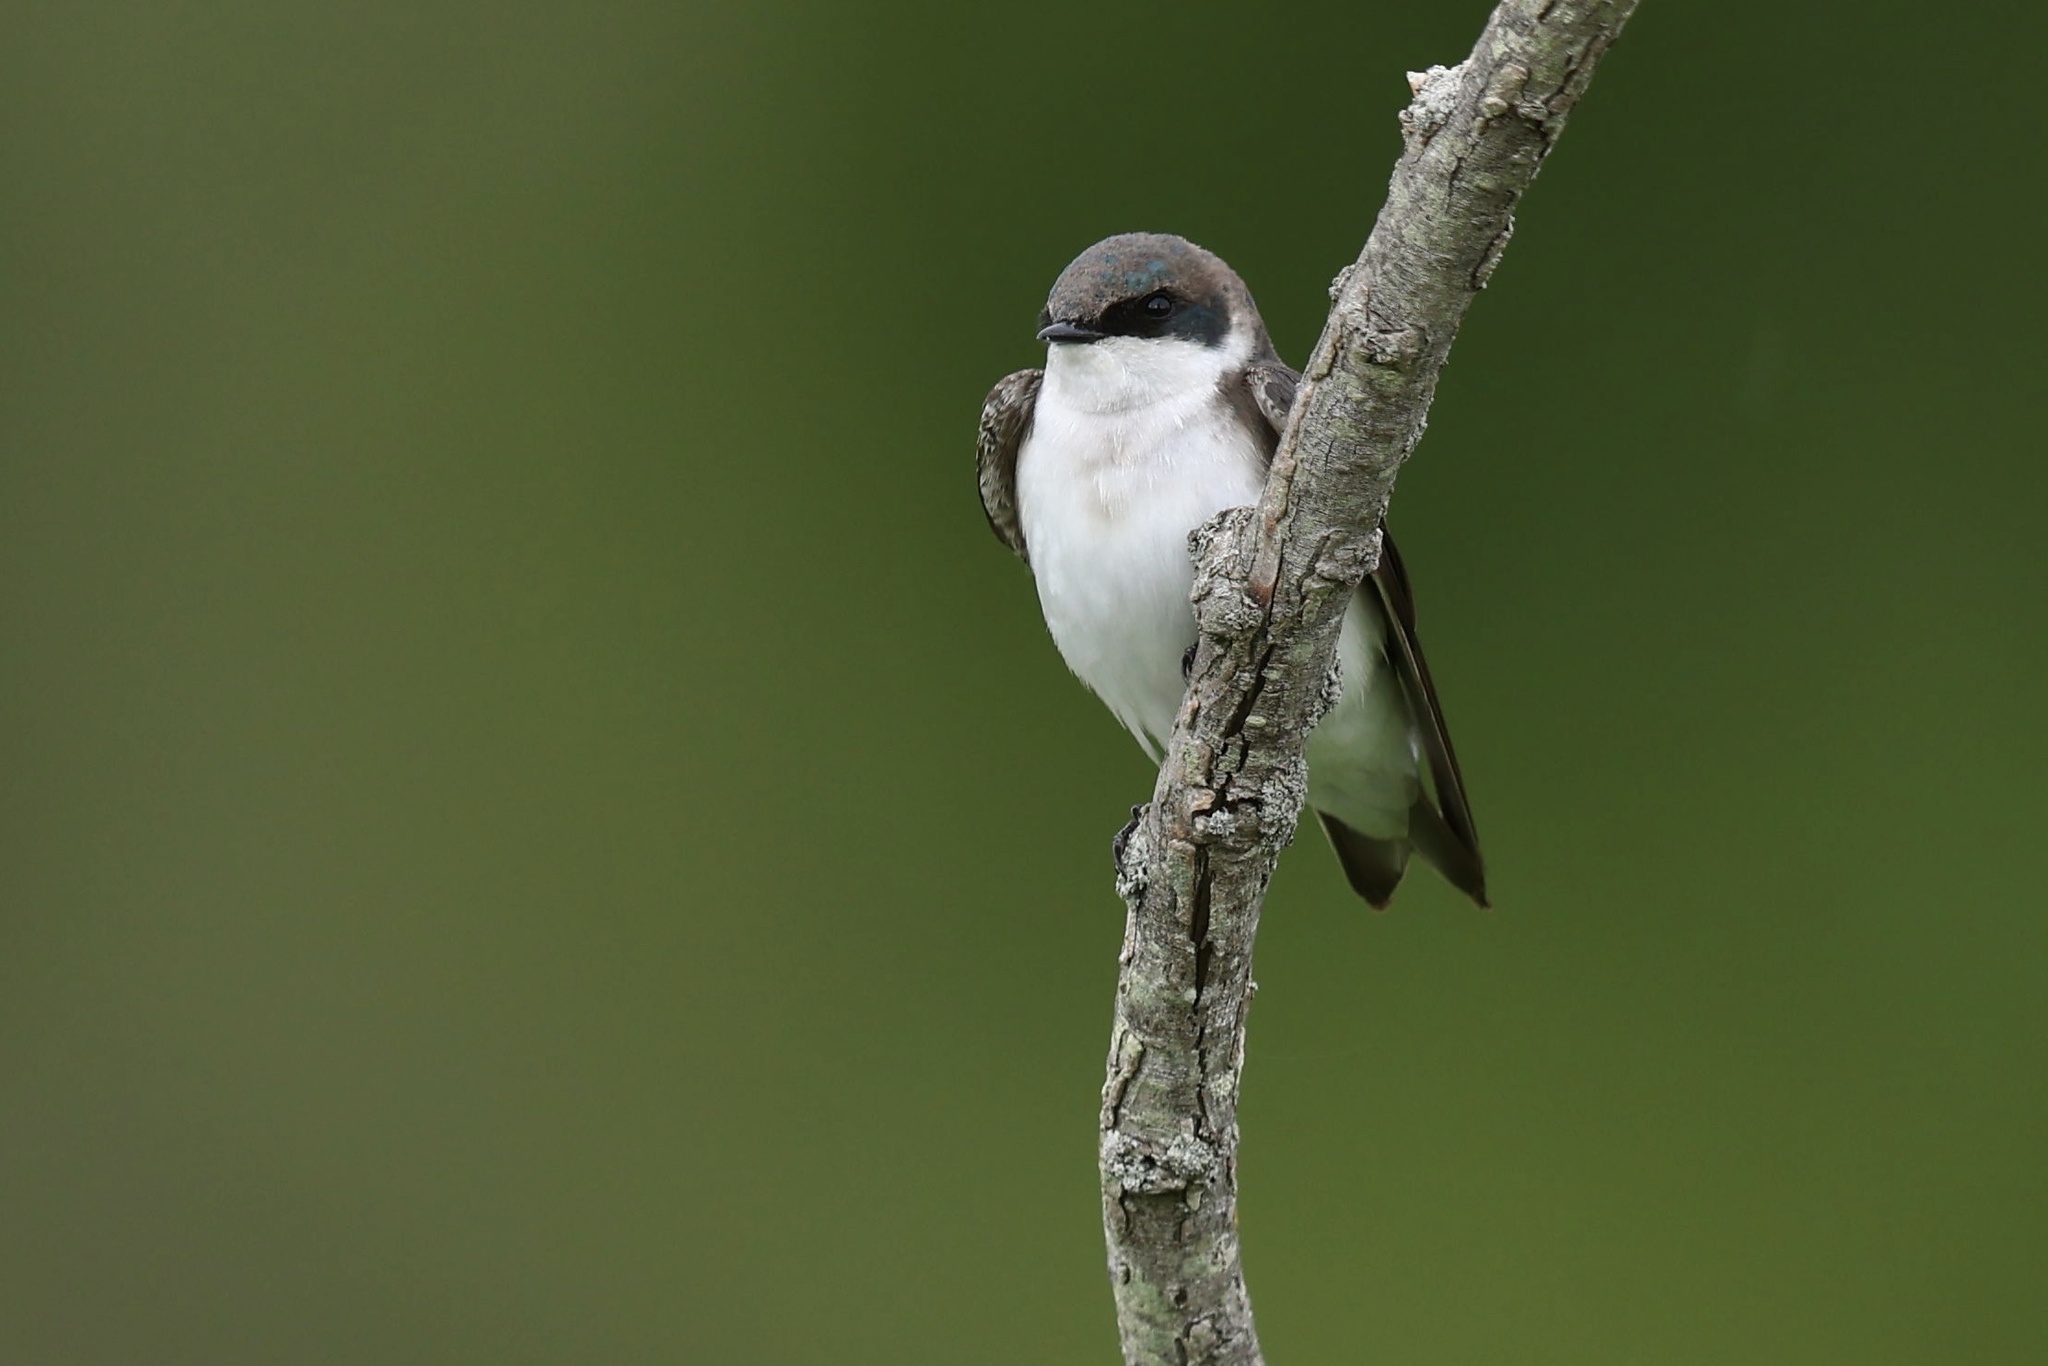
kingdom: Animalia
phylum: Chordata
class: Aves
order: Passeriformes
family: Hirundinidae
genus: Tachycineta
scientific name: Tachycineta bicolor
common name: Tree swallow
